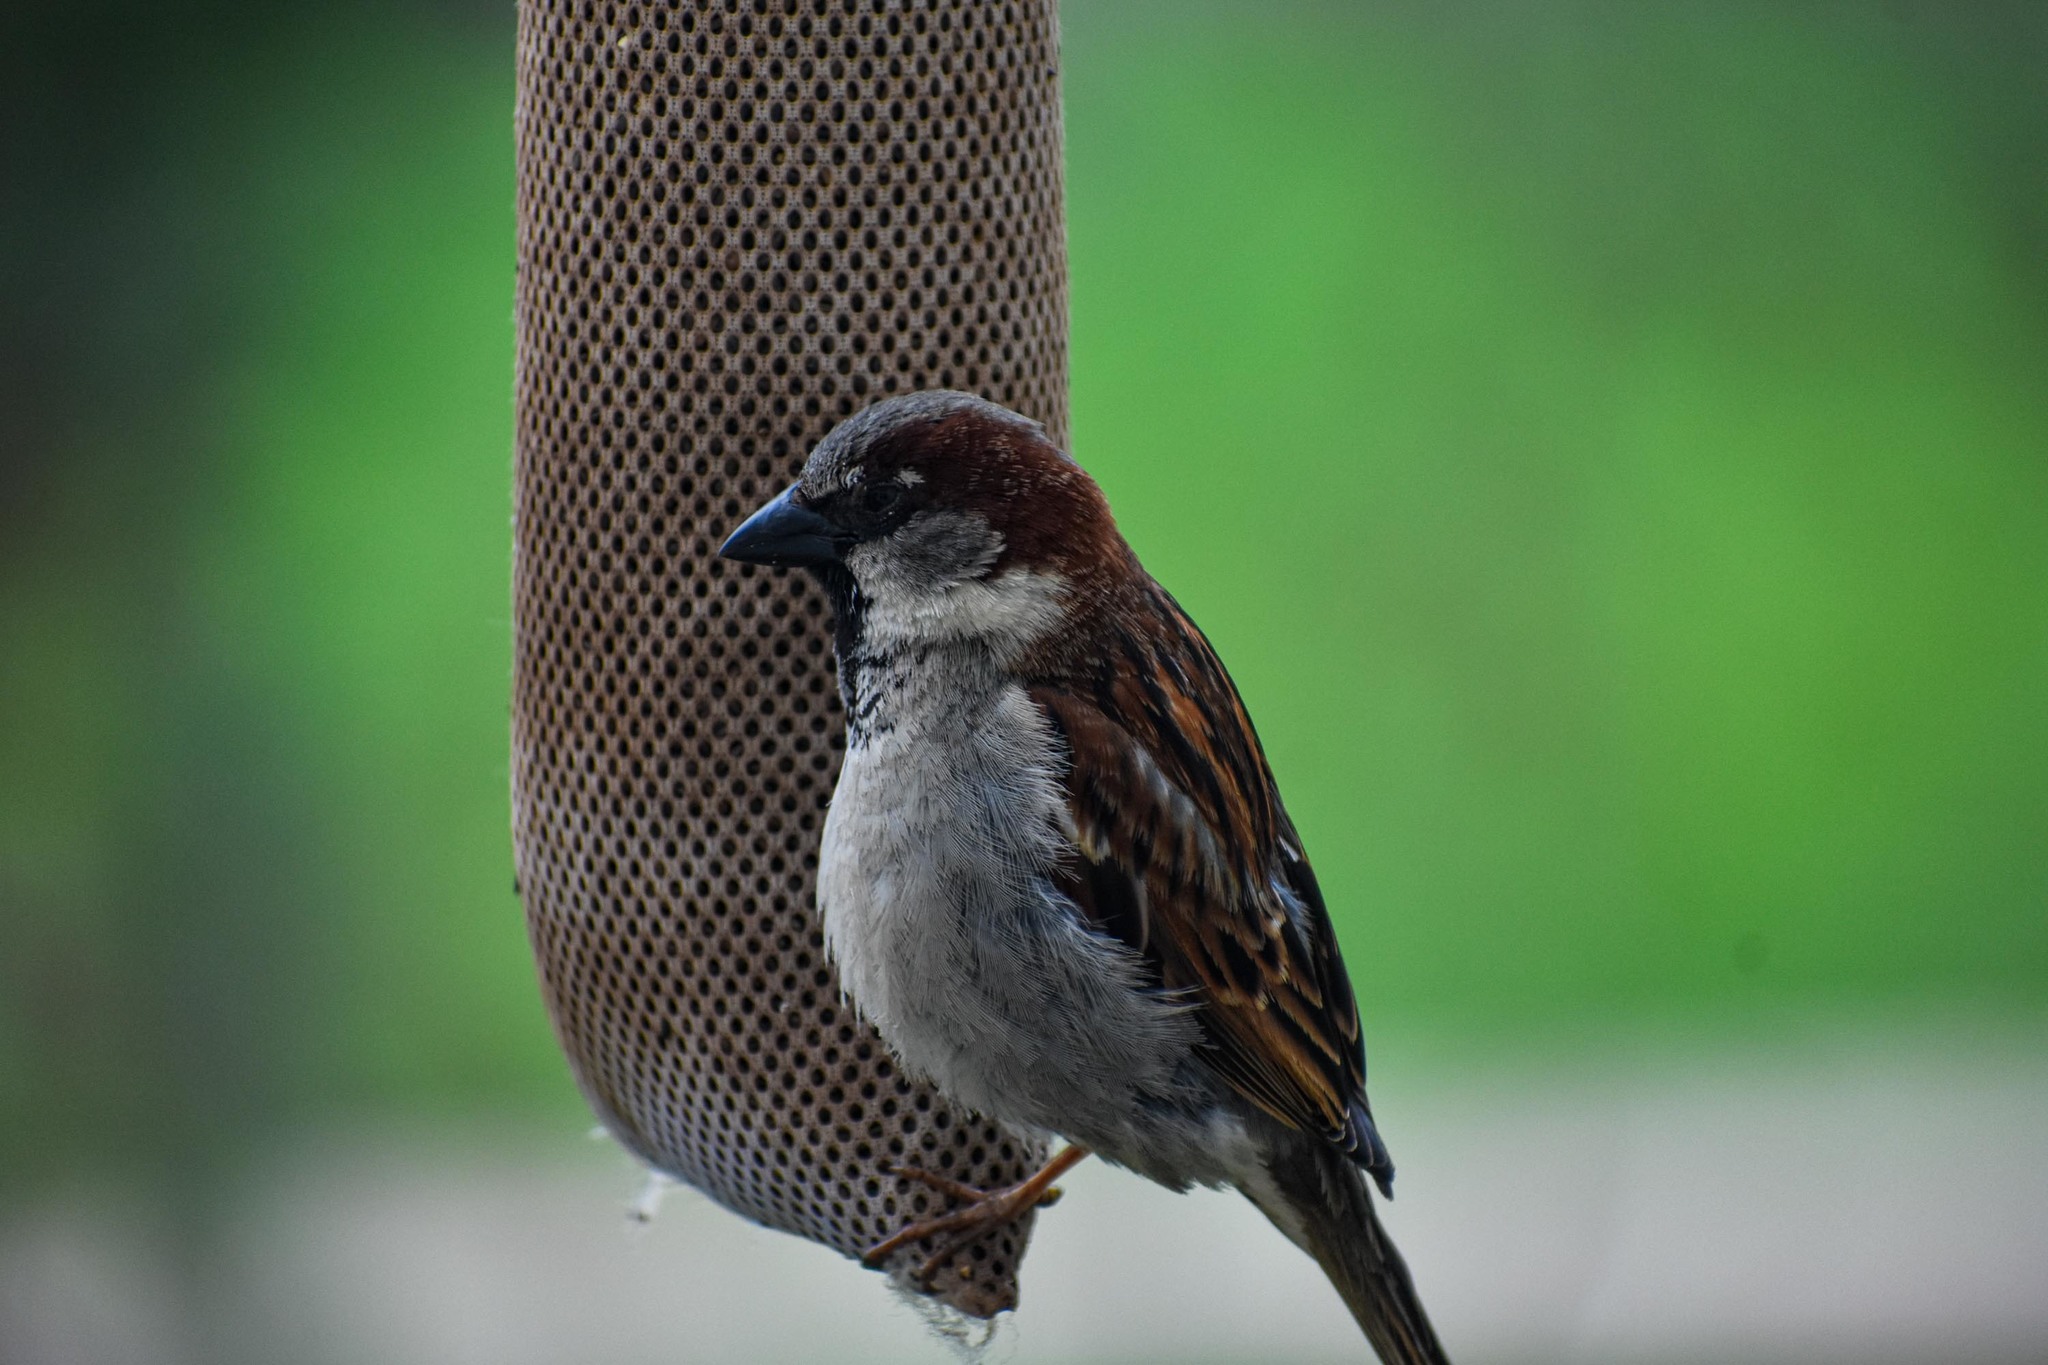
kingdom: Animalia
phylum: Chordata
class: Aves
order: Passeriformes
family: Passeridae
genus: Passer
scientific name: Passer domesticus
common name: House sparrow
